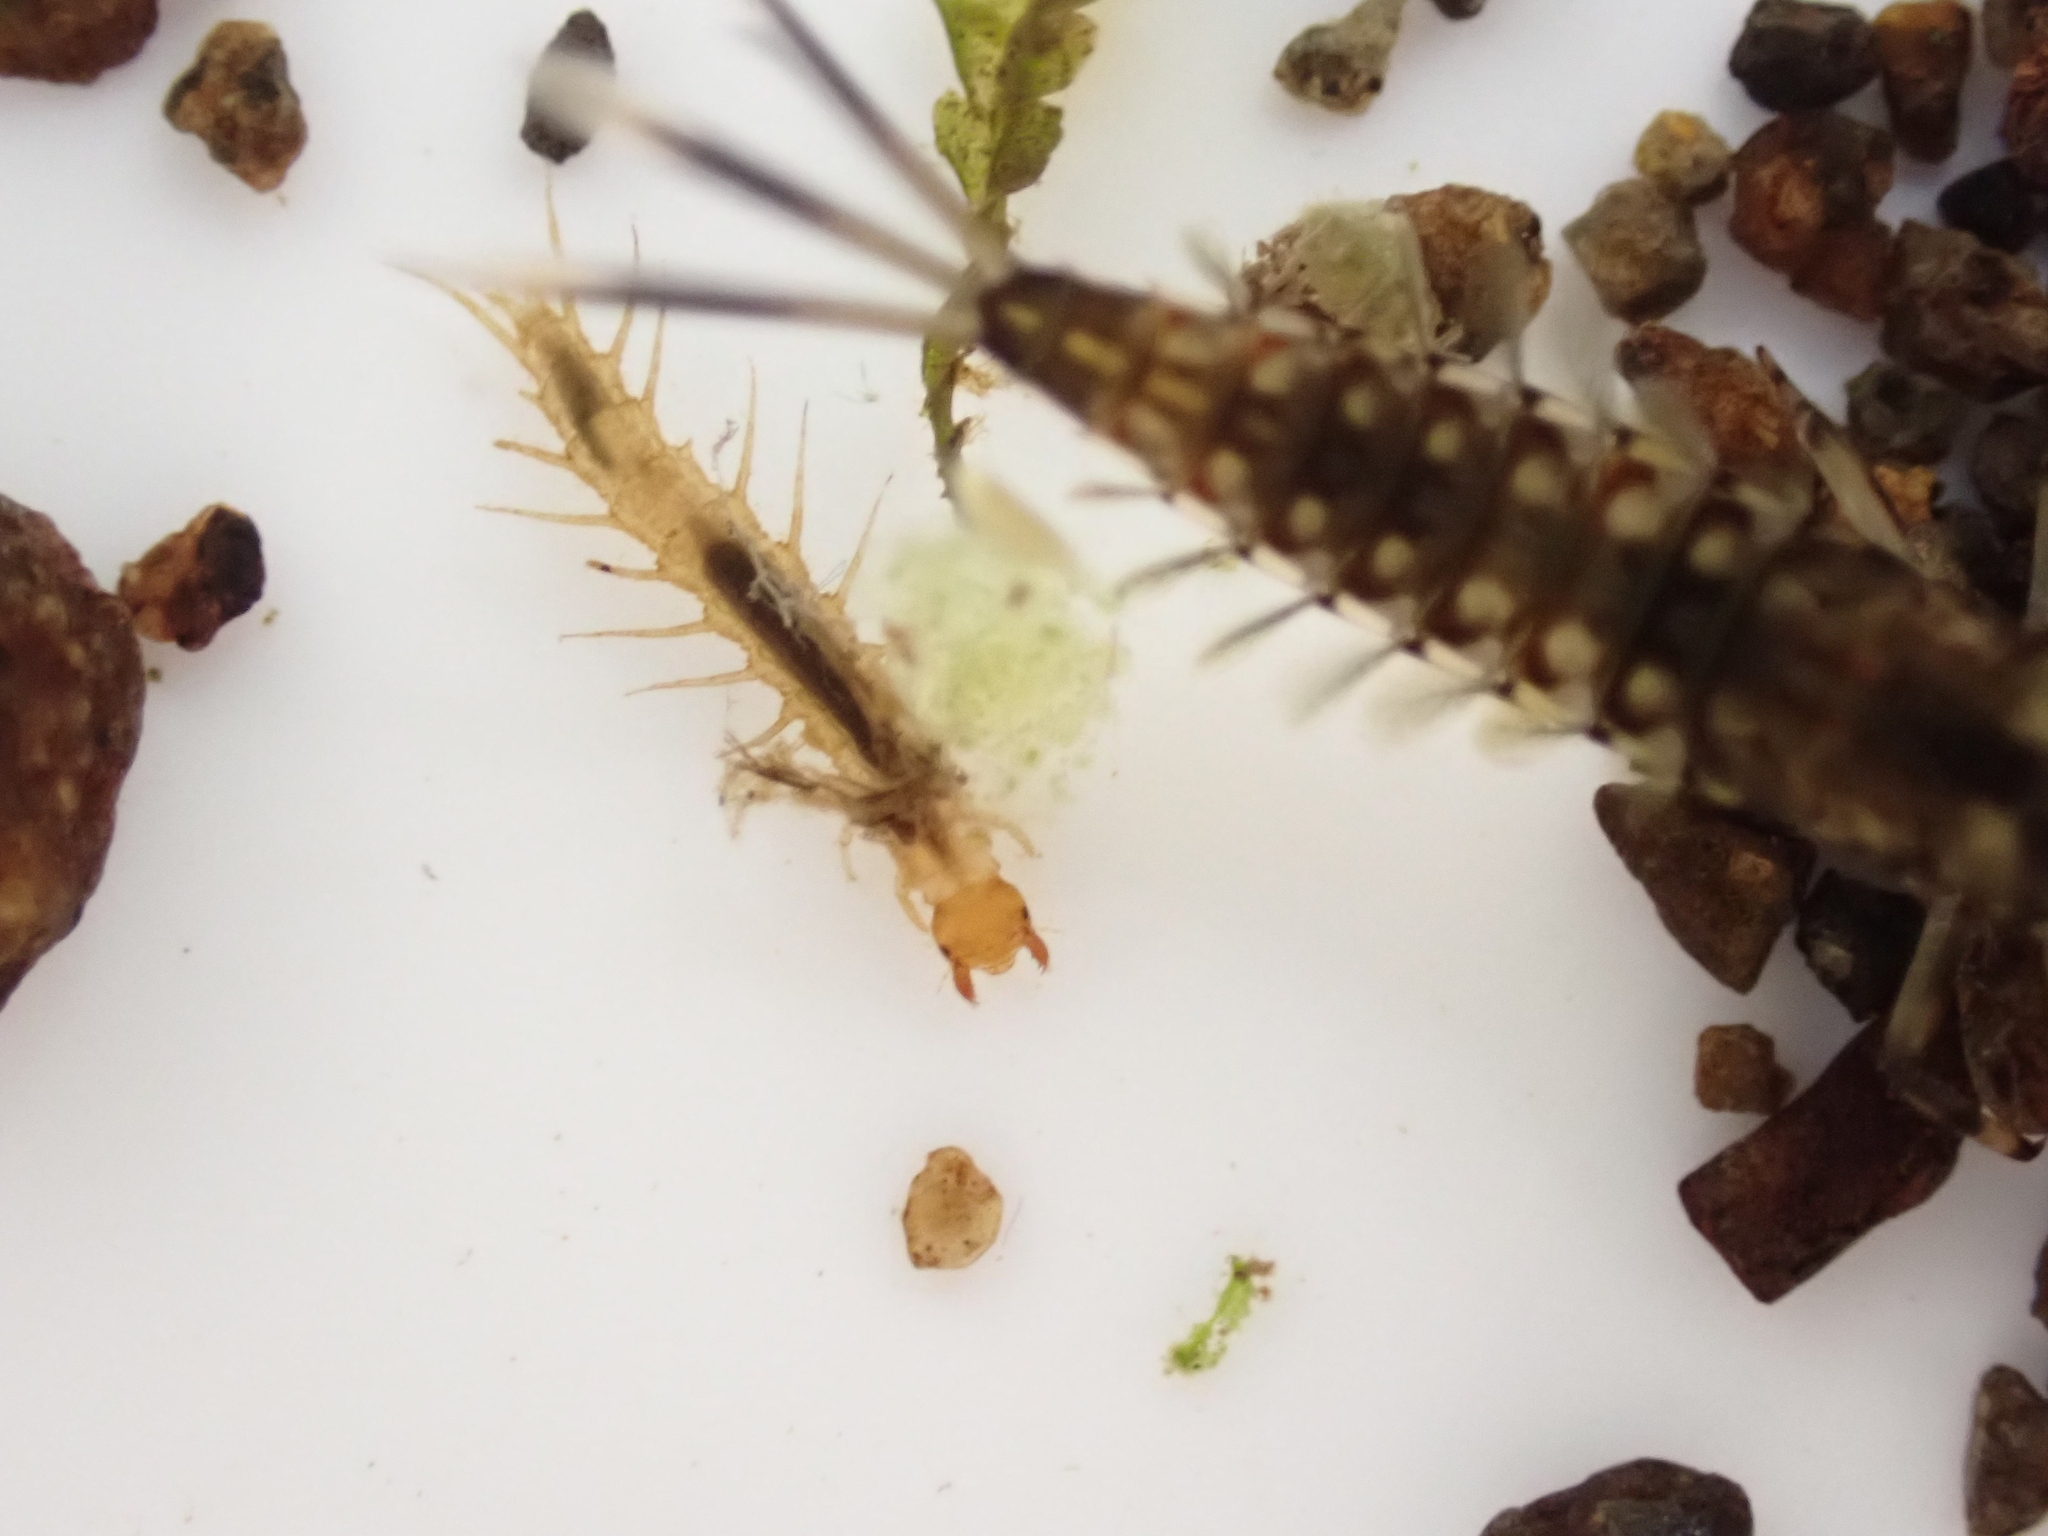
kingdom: Animalia
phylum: Arthropoda
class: Insecta
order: Megaloptera
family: Corydalidae
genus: Archichauliodes
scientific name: Archichauliodes diversus
